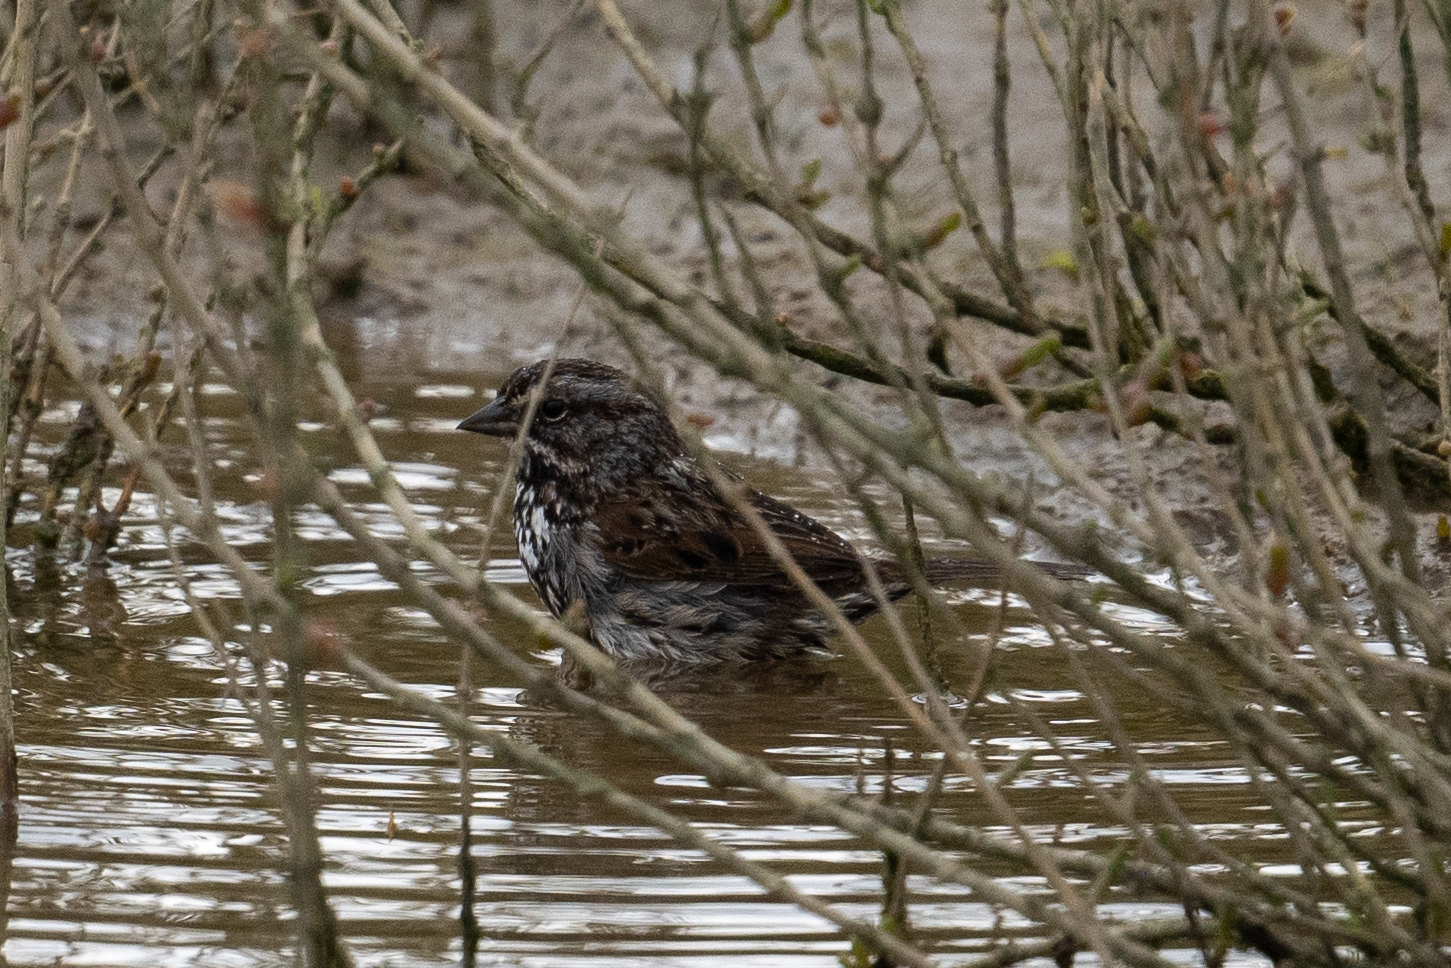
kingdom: Animalia
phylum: Chordata
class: Aves
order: Passeriformes
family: Passerellidae
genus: Melospiza
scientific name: Melospiza melodia
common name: Song sparrow
